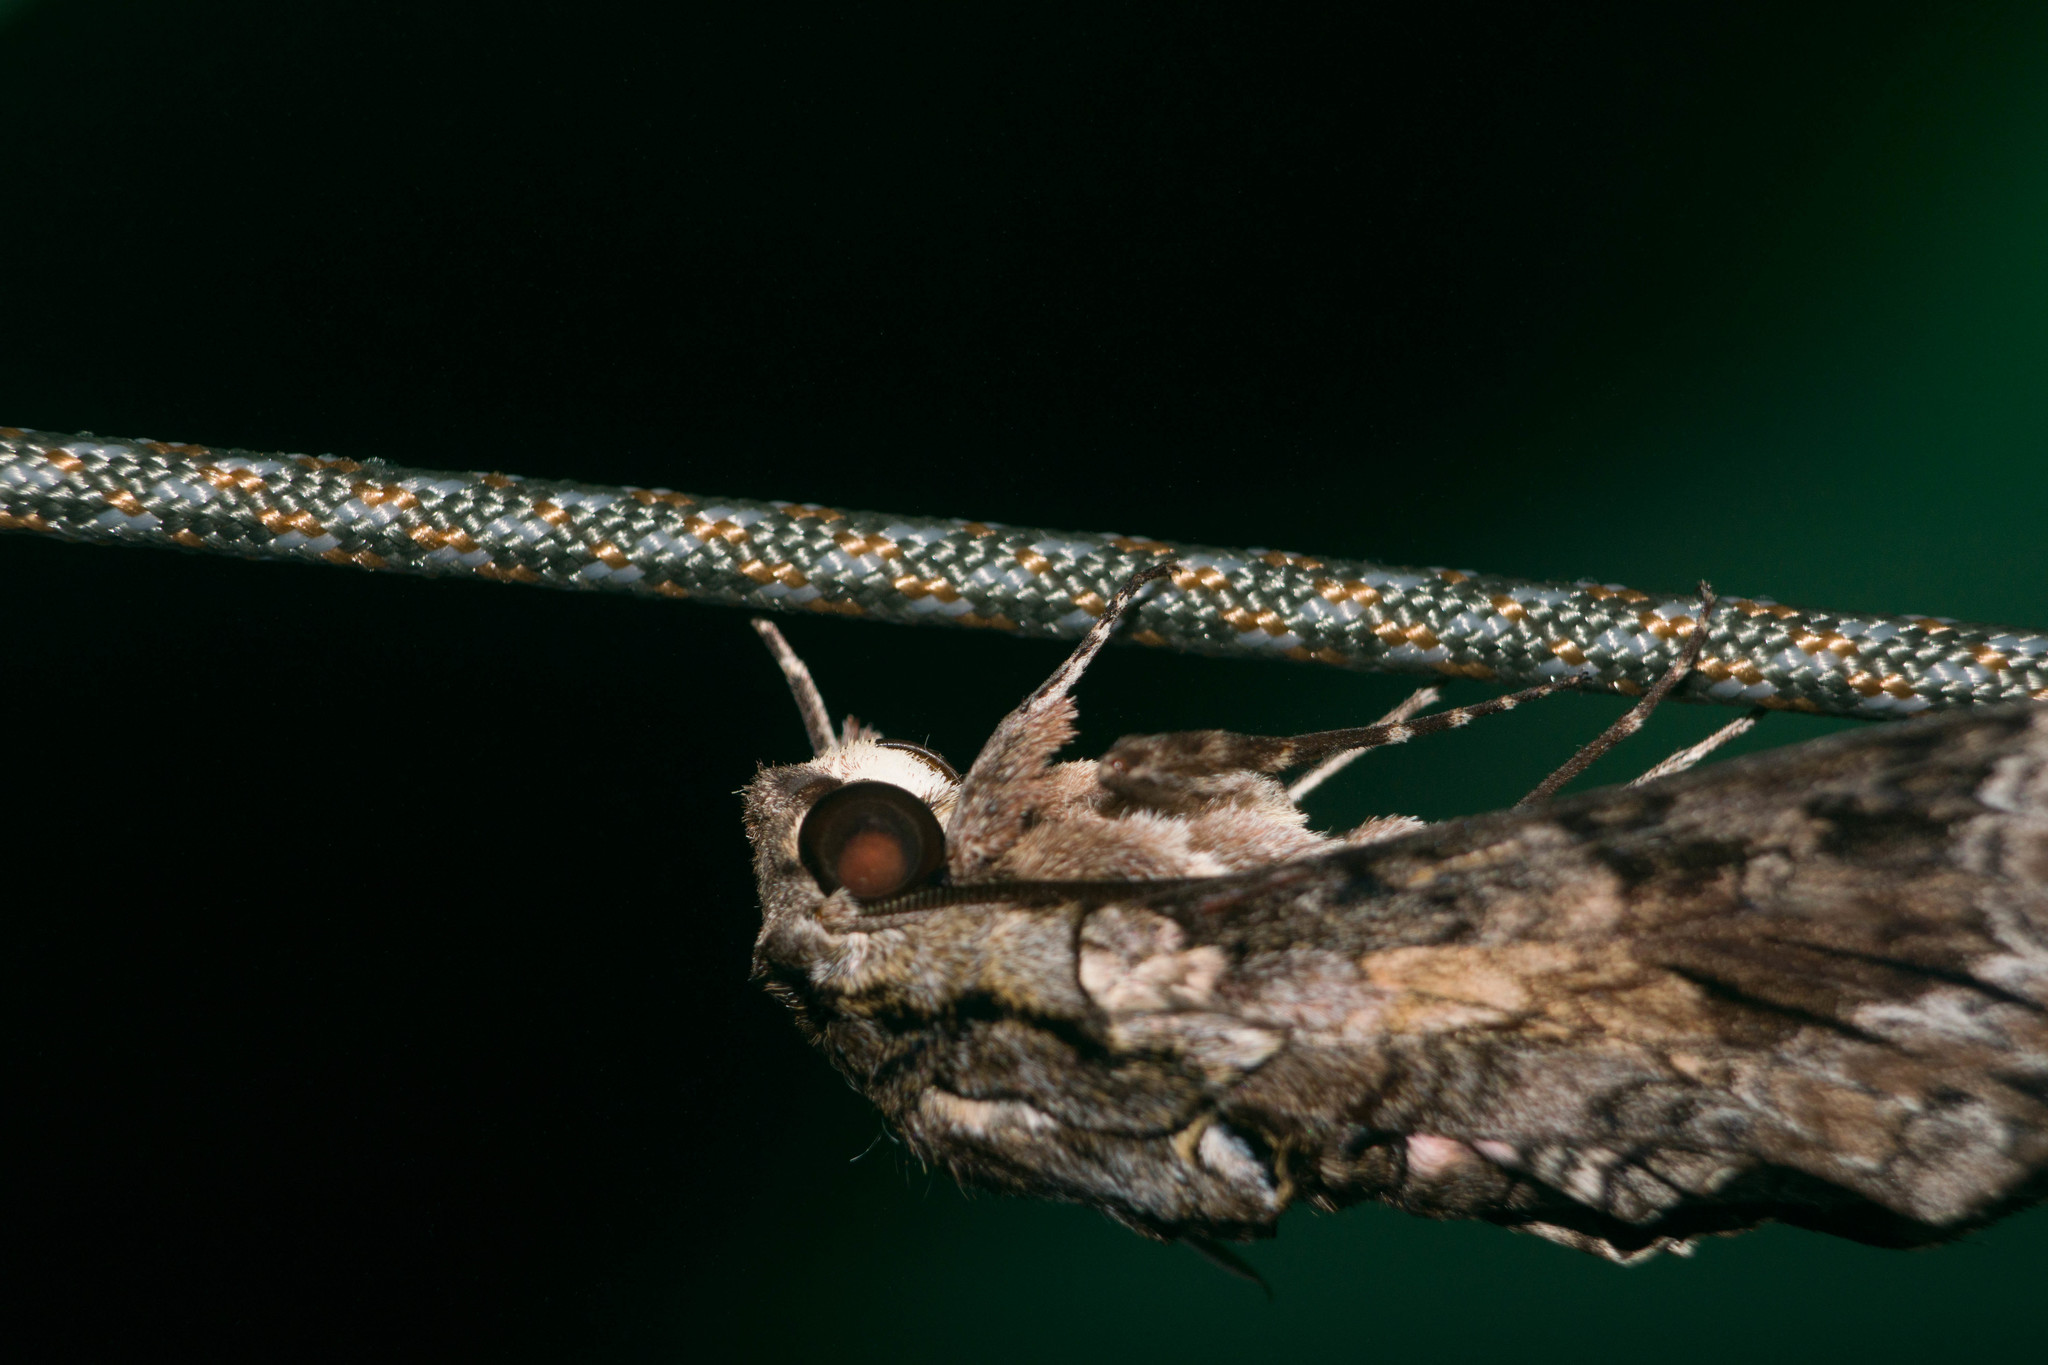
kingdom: Animalia
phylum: Arthropoda
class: Insecta
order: Lepidoptera
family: Sphingidae
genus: Agrius
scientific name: Agrius cingulata
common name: Pink-spotted hawkmoth
